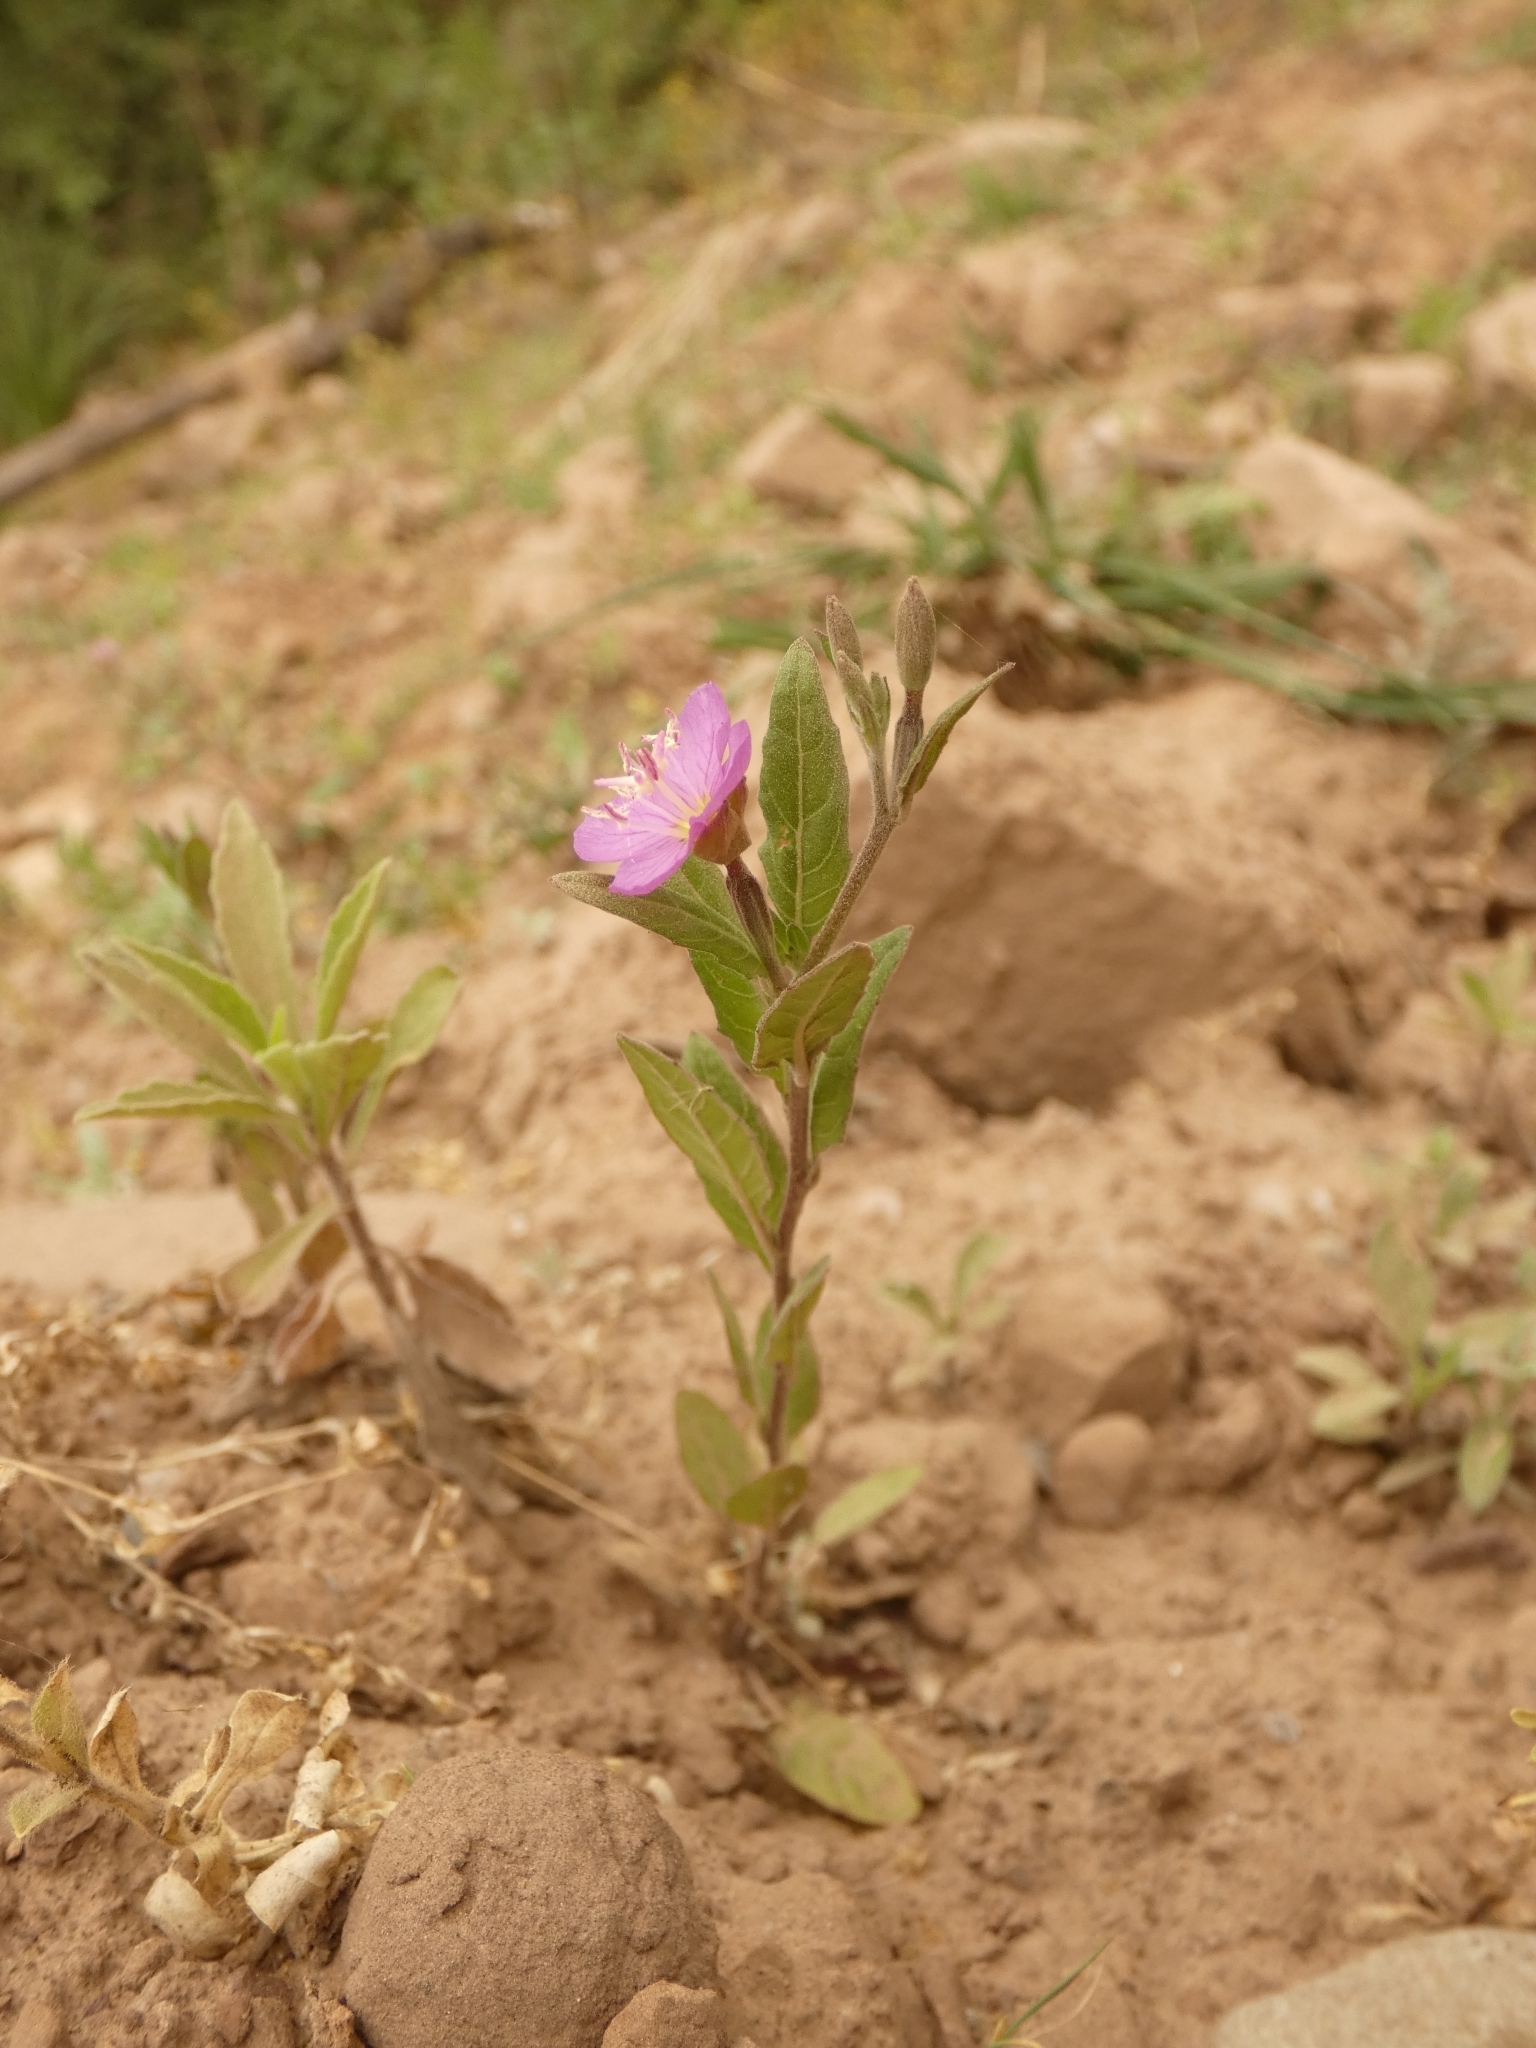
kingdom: Plantae
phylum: Tracheophyta
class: Magnoliopsida
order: Myrtales
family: Onagraceae
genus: Oenothera
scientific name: Oenothera rosea
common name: Rosy evening-primrose
